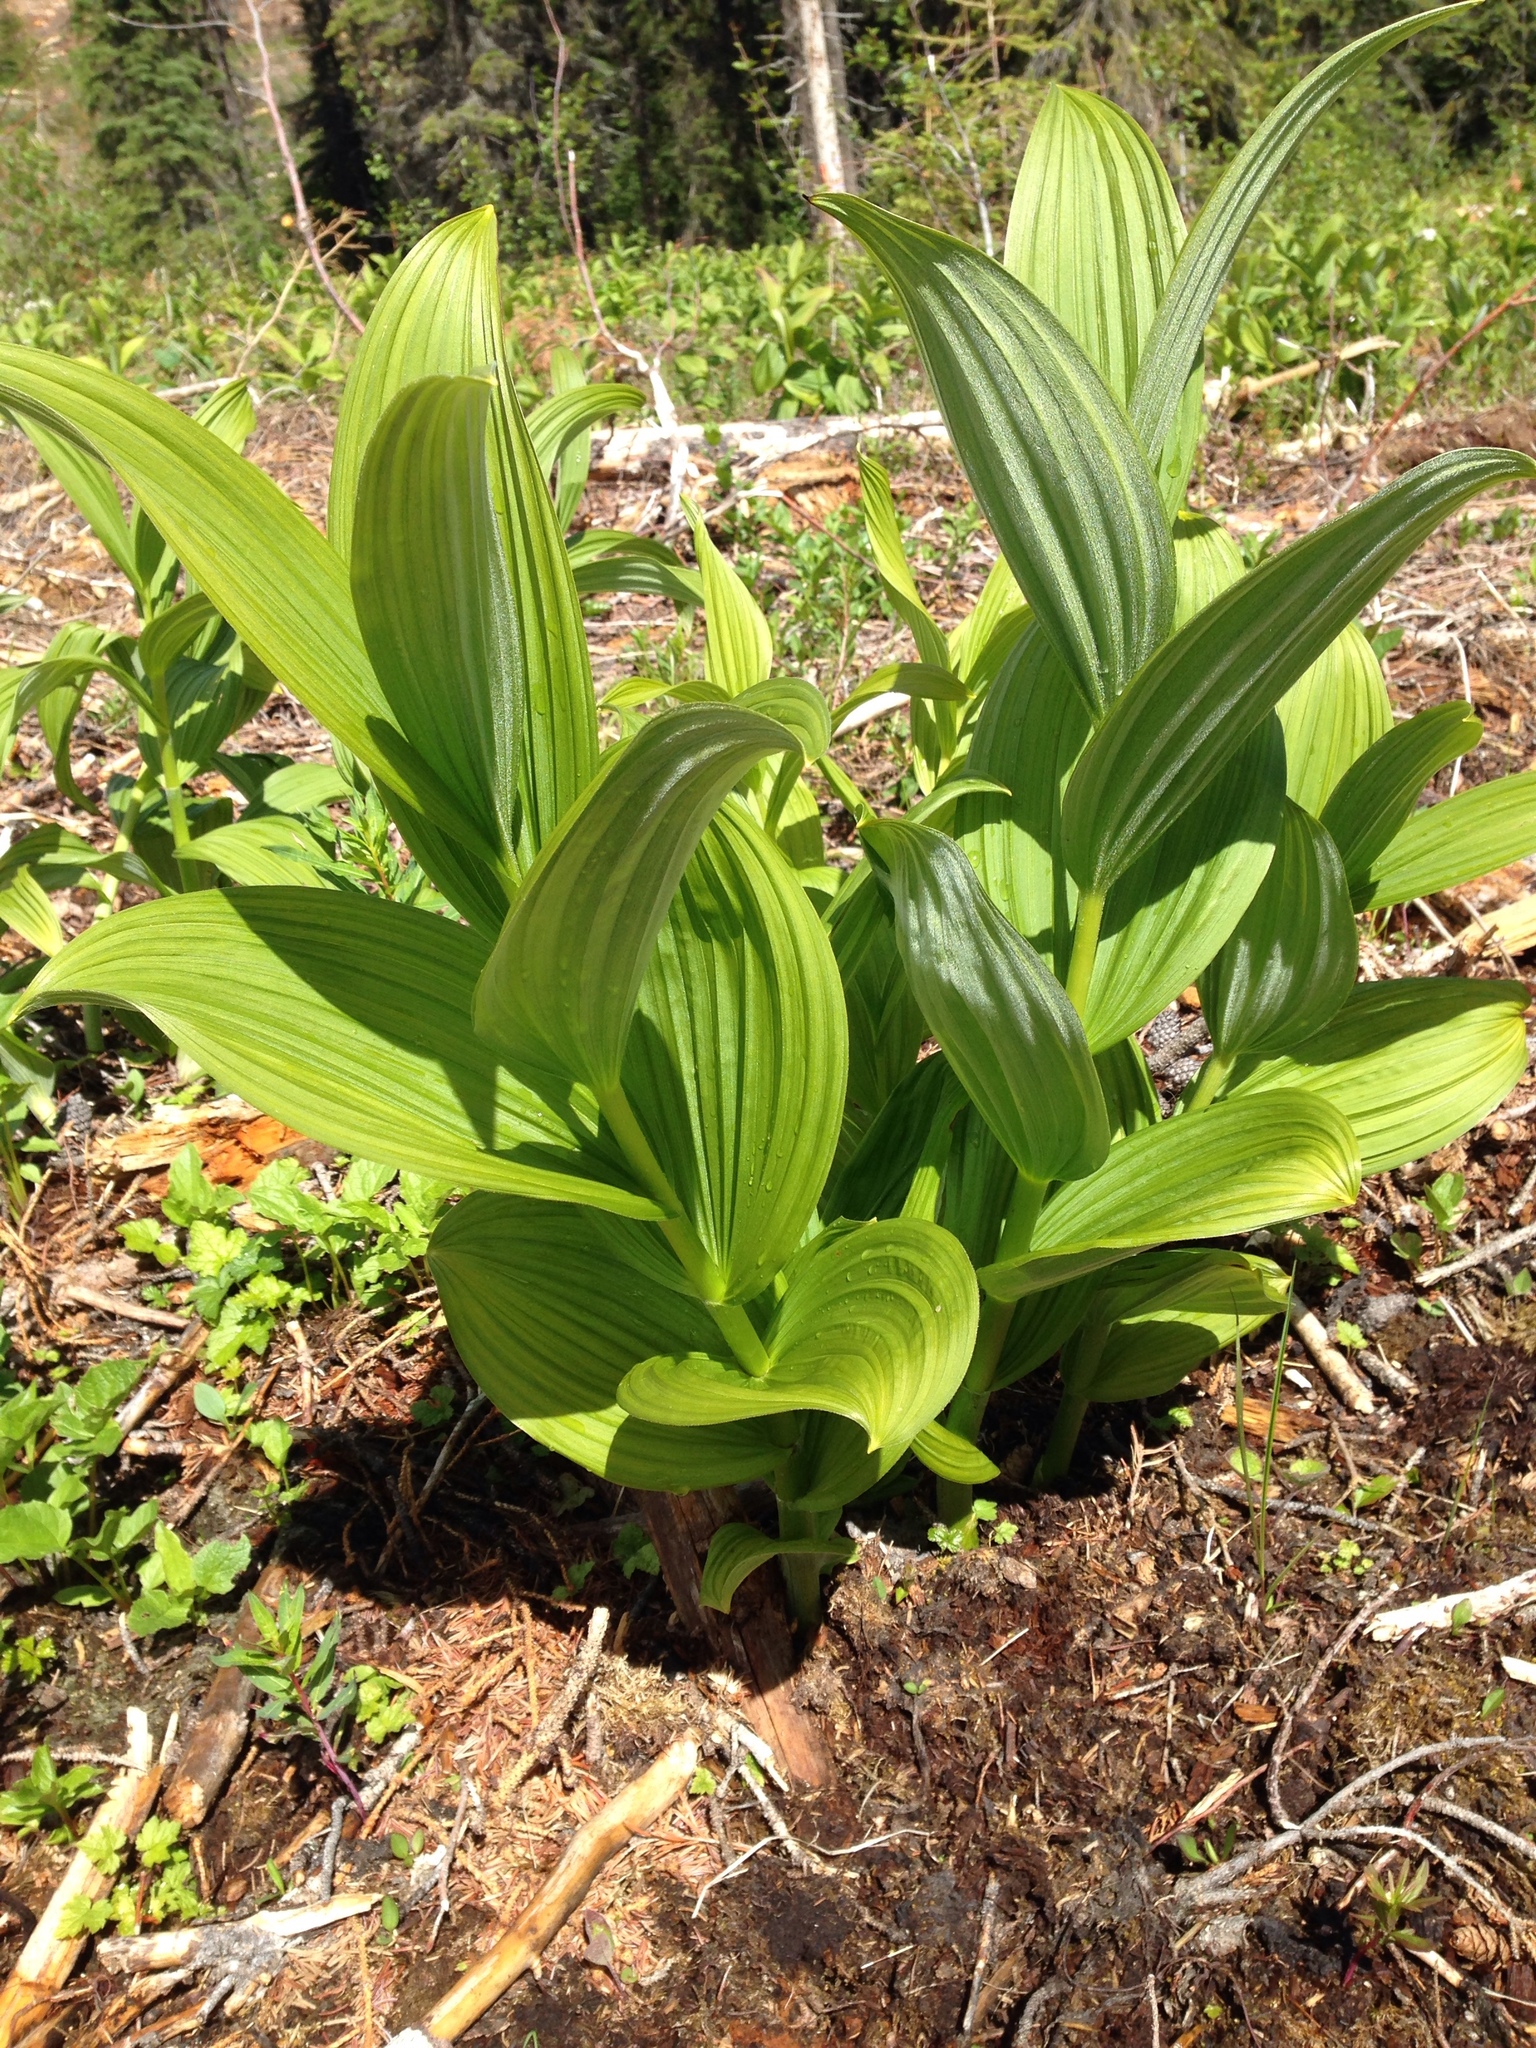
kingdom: Plantae
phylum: Tracheophyta
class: Liliopsida
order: Liliales
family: Melanthiaceae
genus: Veratrum
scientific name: Veratrum viride
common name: American false hellebore
